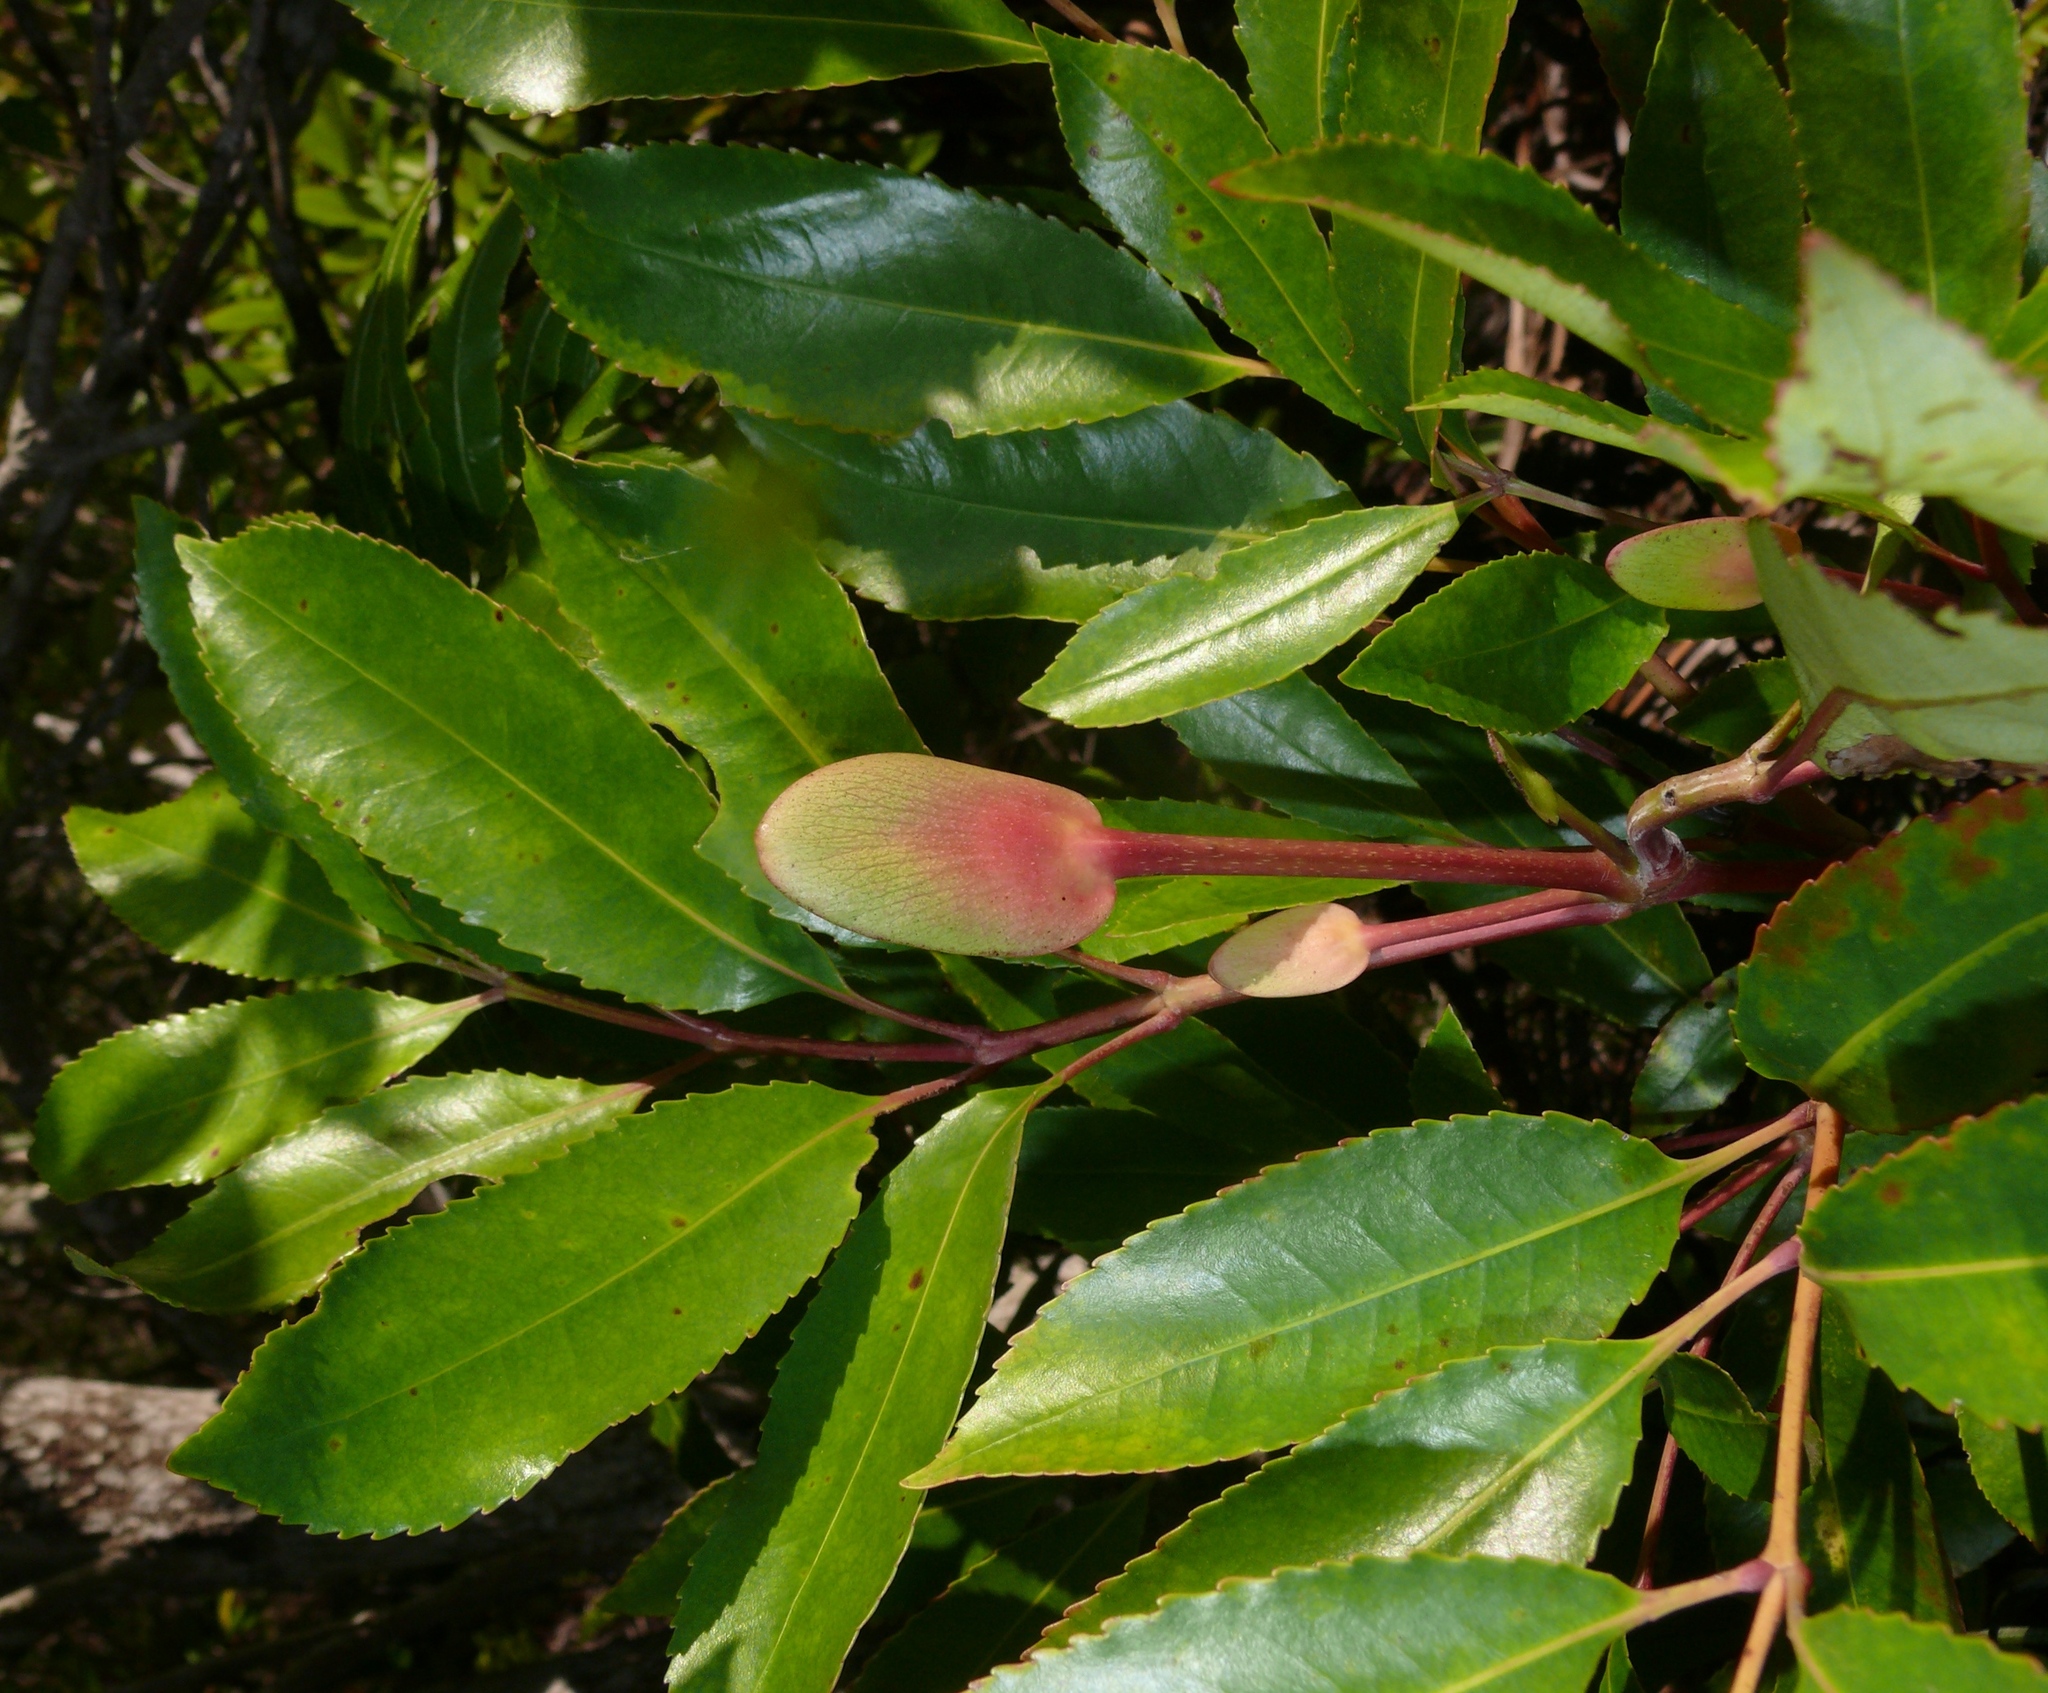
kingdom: Plantae
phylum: Tracheophyta
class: Magnoliopsida
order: Oxalidales
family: Cunoniaceae
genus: Cunonia
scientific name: Cunonia capensis
